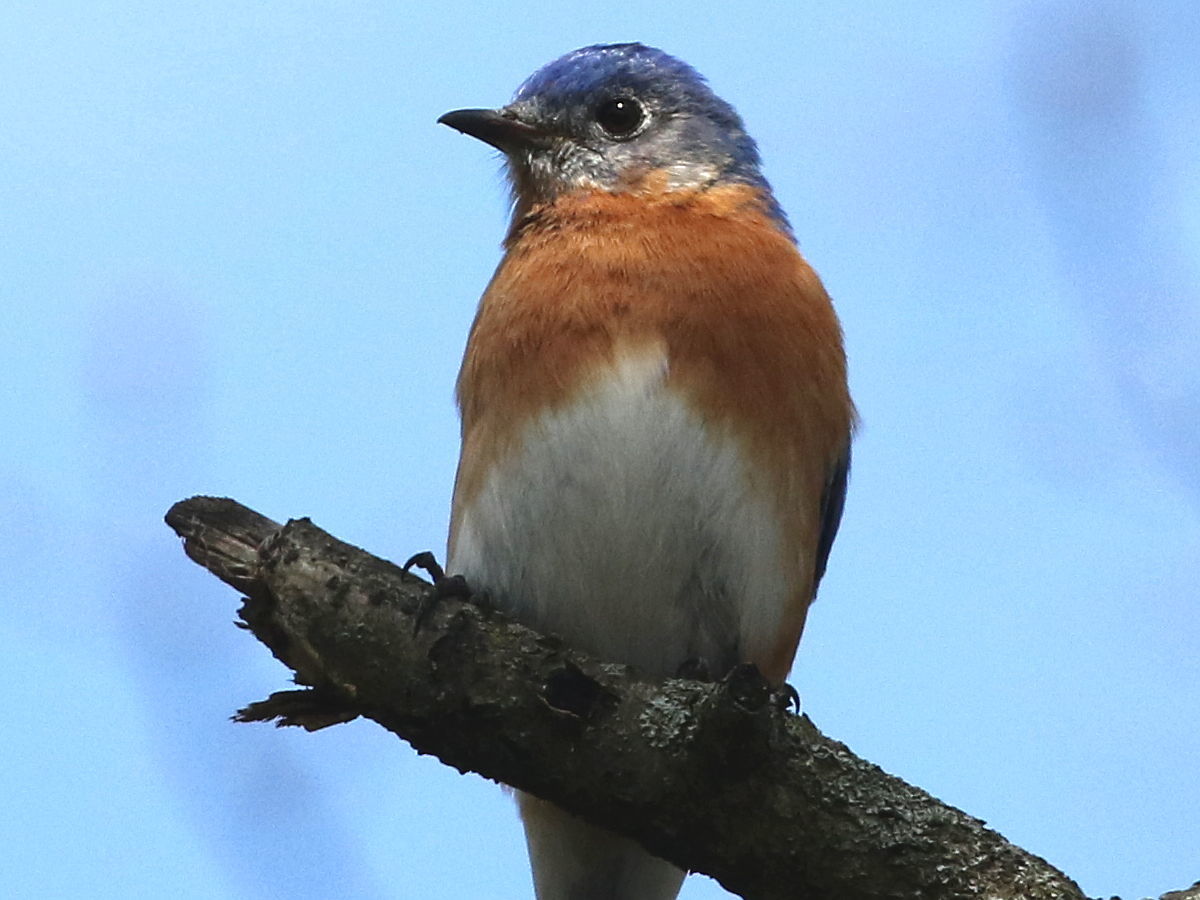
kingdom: Animalia
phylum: Chordata
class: Aves
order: Passeriformes
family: Turdidae
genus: Sialia
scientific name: Sialia sialis
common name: Eastern bluebird
